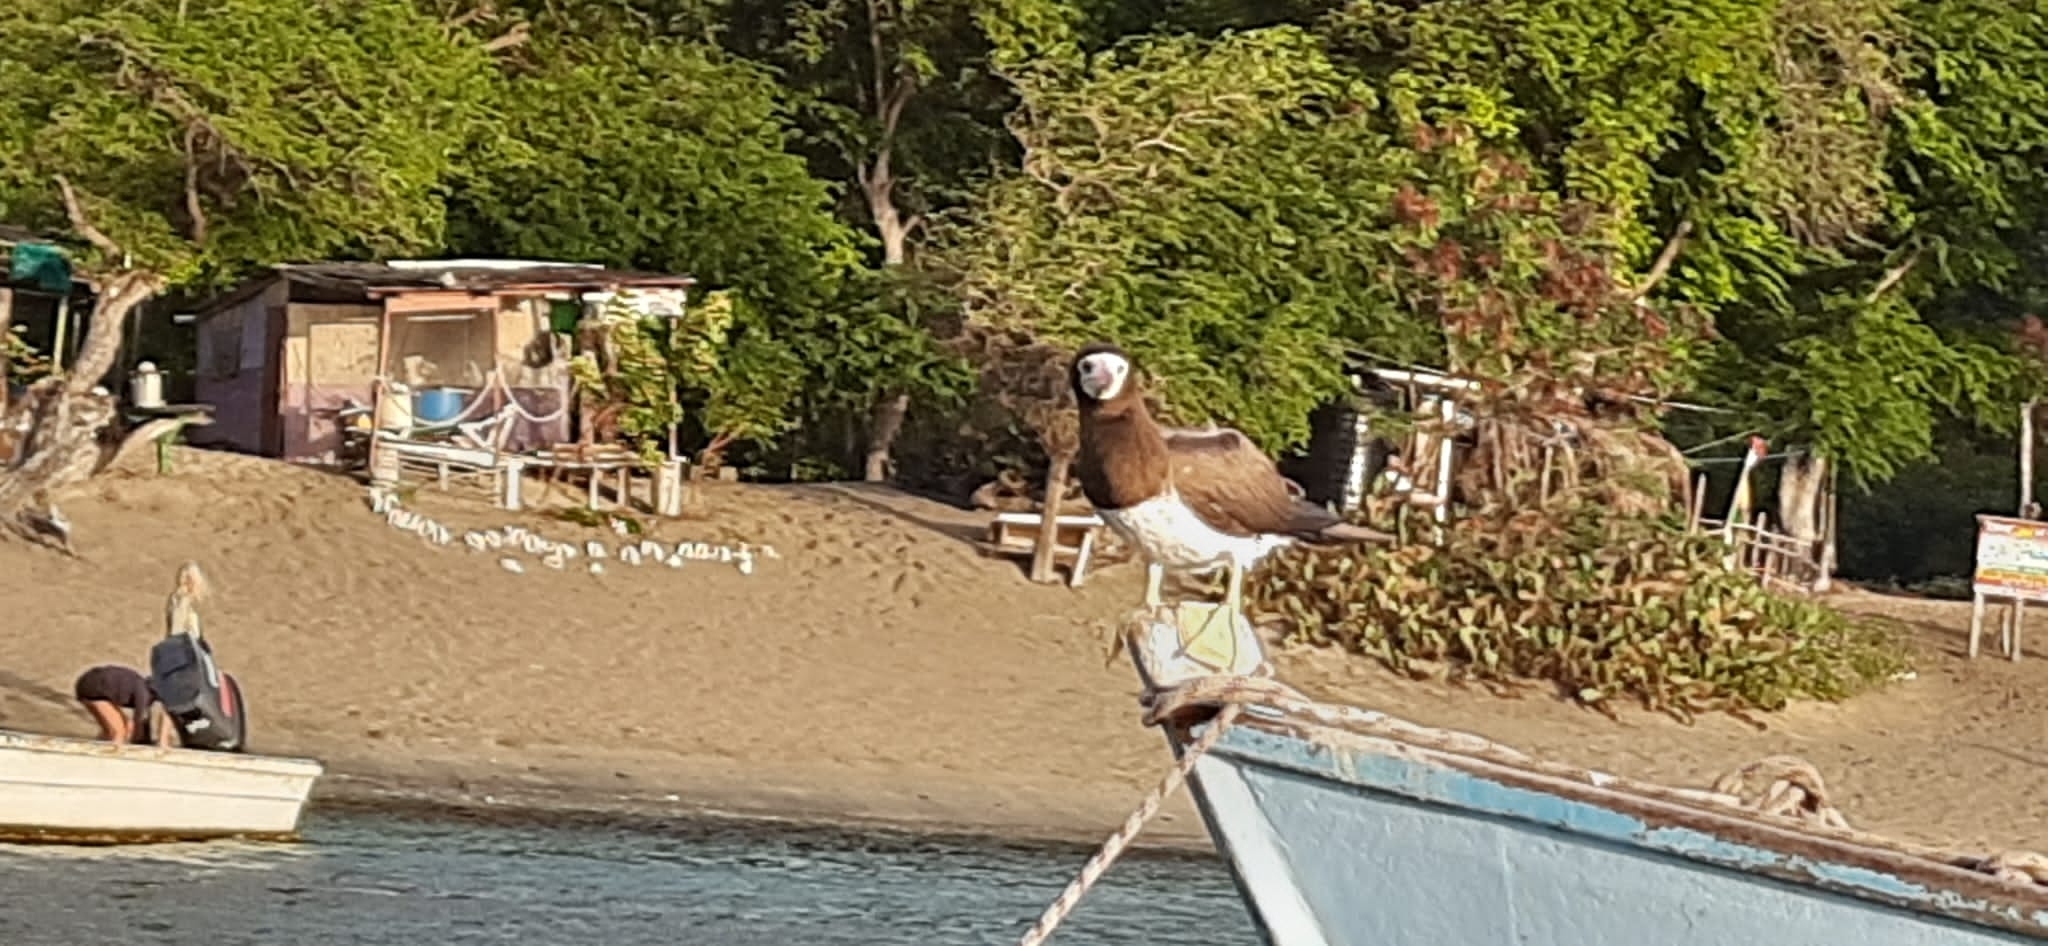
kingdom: Animalia
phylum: Chordata
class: Aves
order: Suliformes
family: Sulidae
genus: Sula
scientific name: Sula leucogaster
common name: Brown booby
